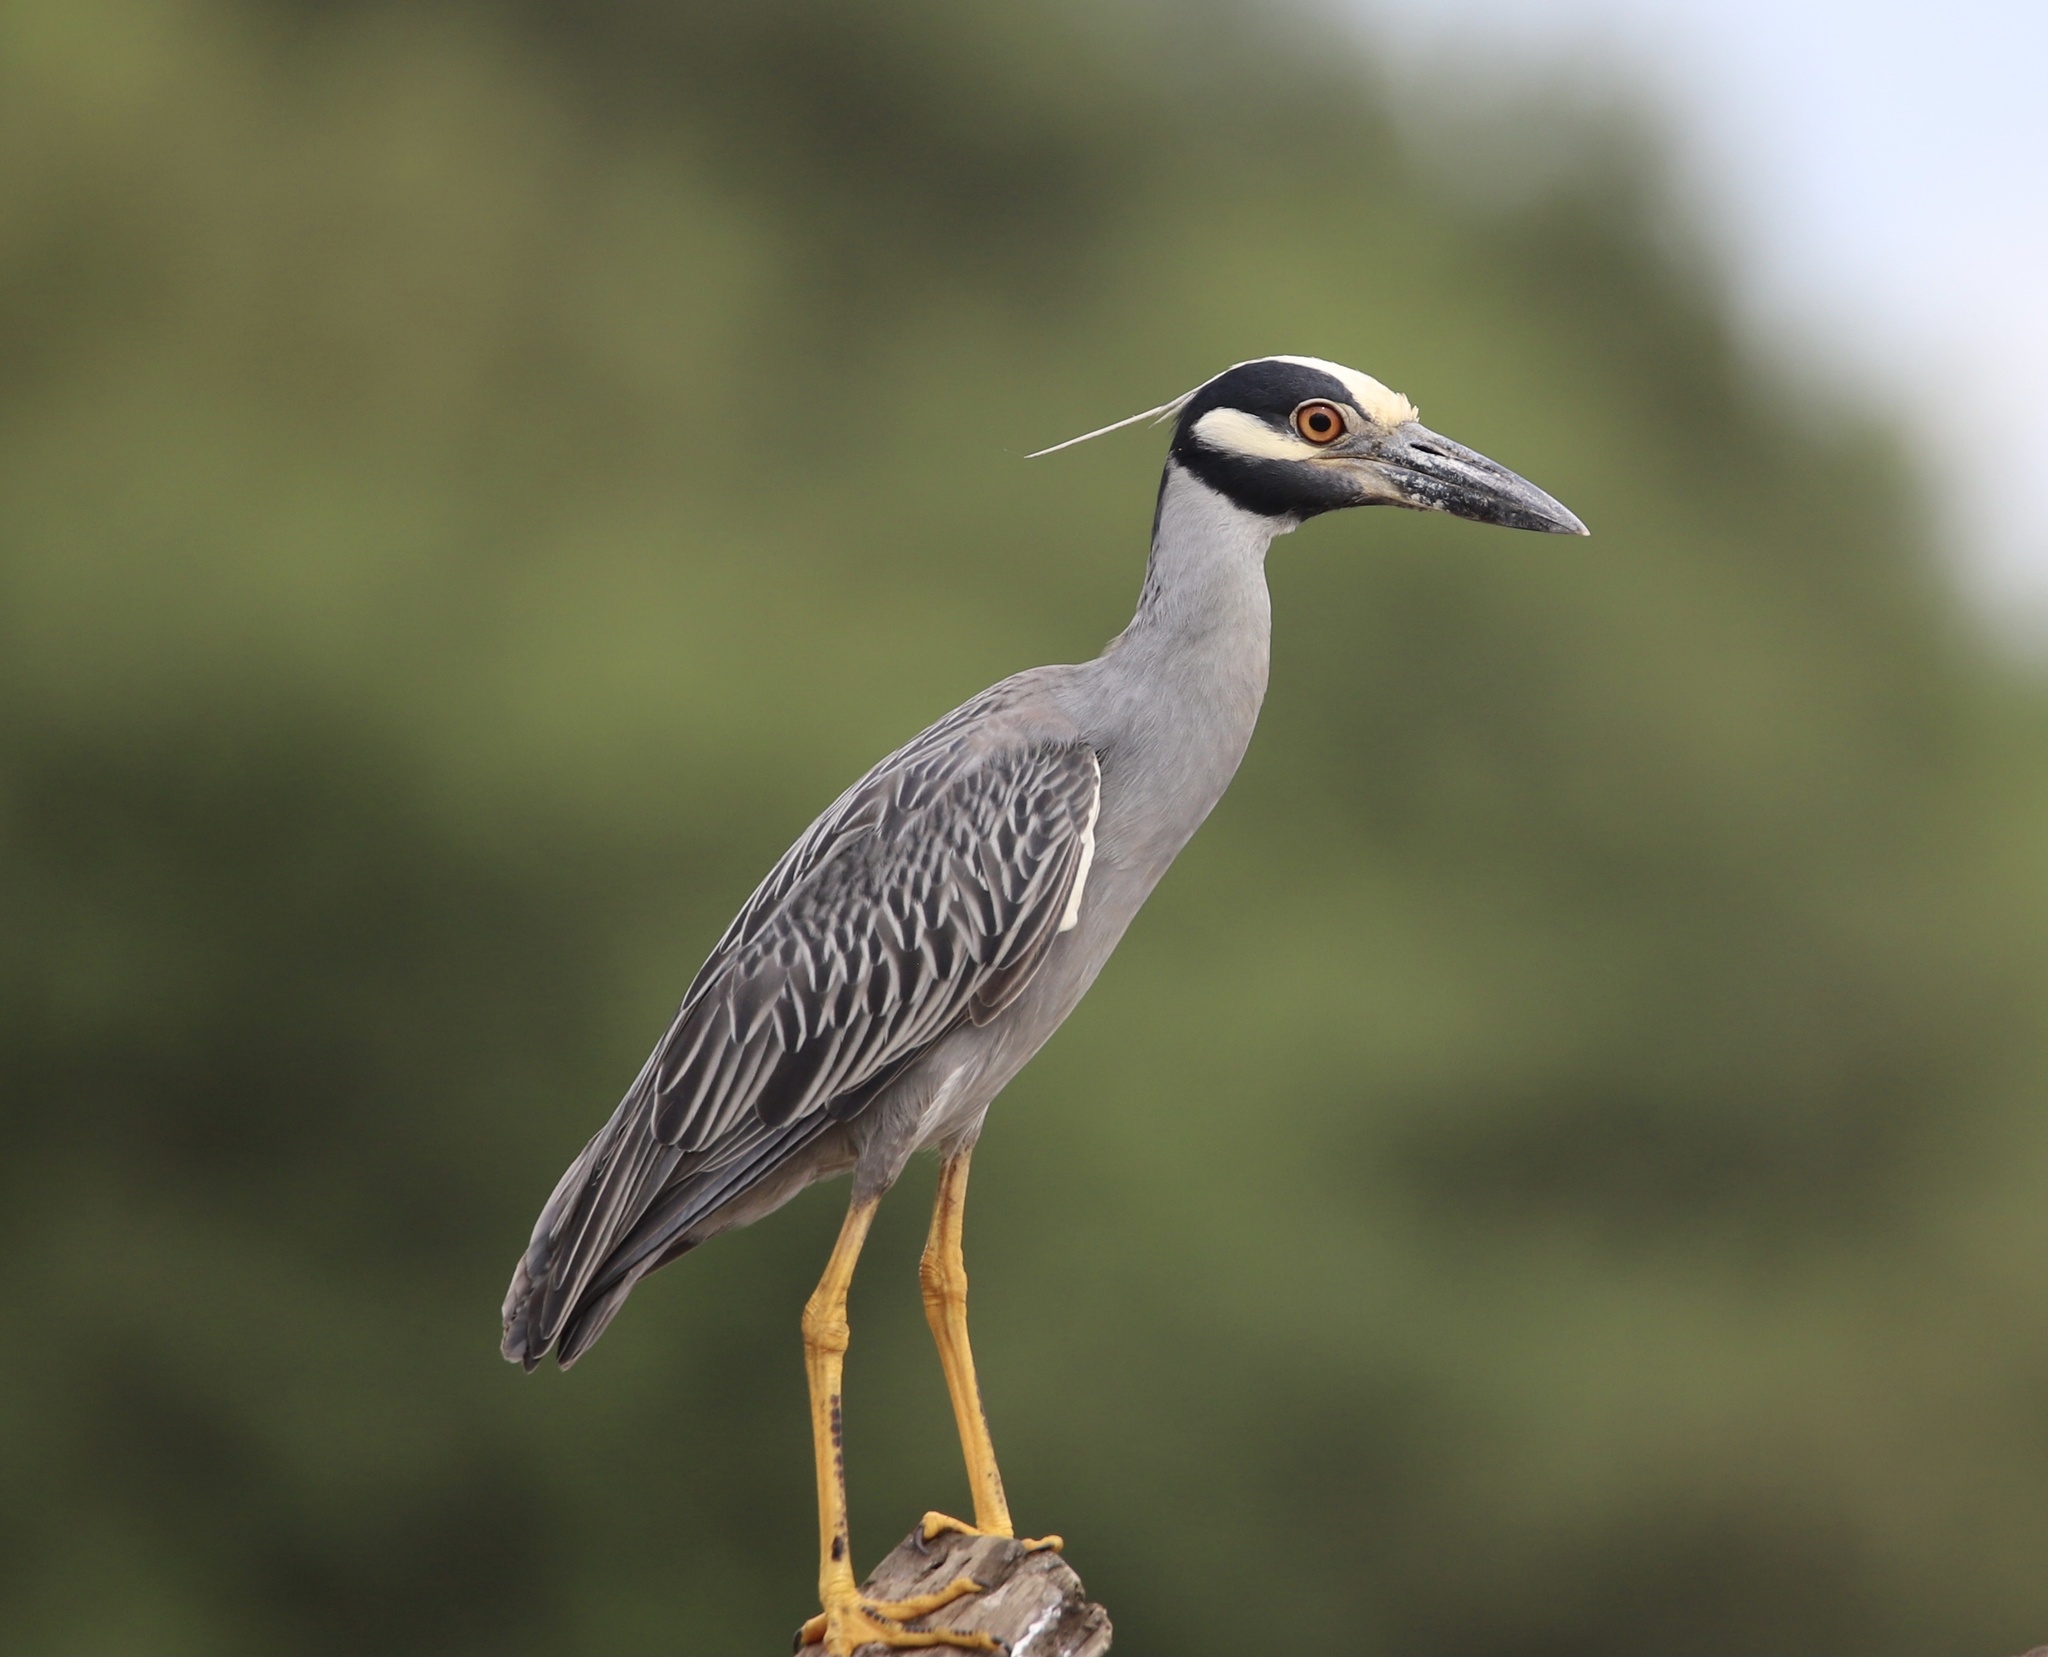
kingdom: Animalia
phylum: Chordata
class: Aves
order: Pelecaniformes
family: Ardeidae
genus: Nyctanassa
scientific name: Nyctanassa violacea
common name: Yellow-crowned night heron
